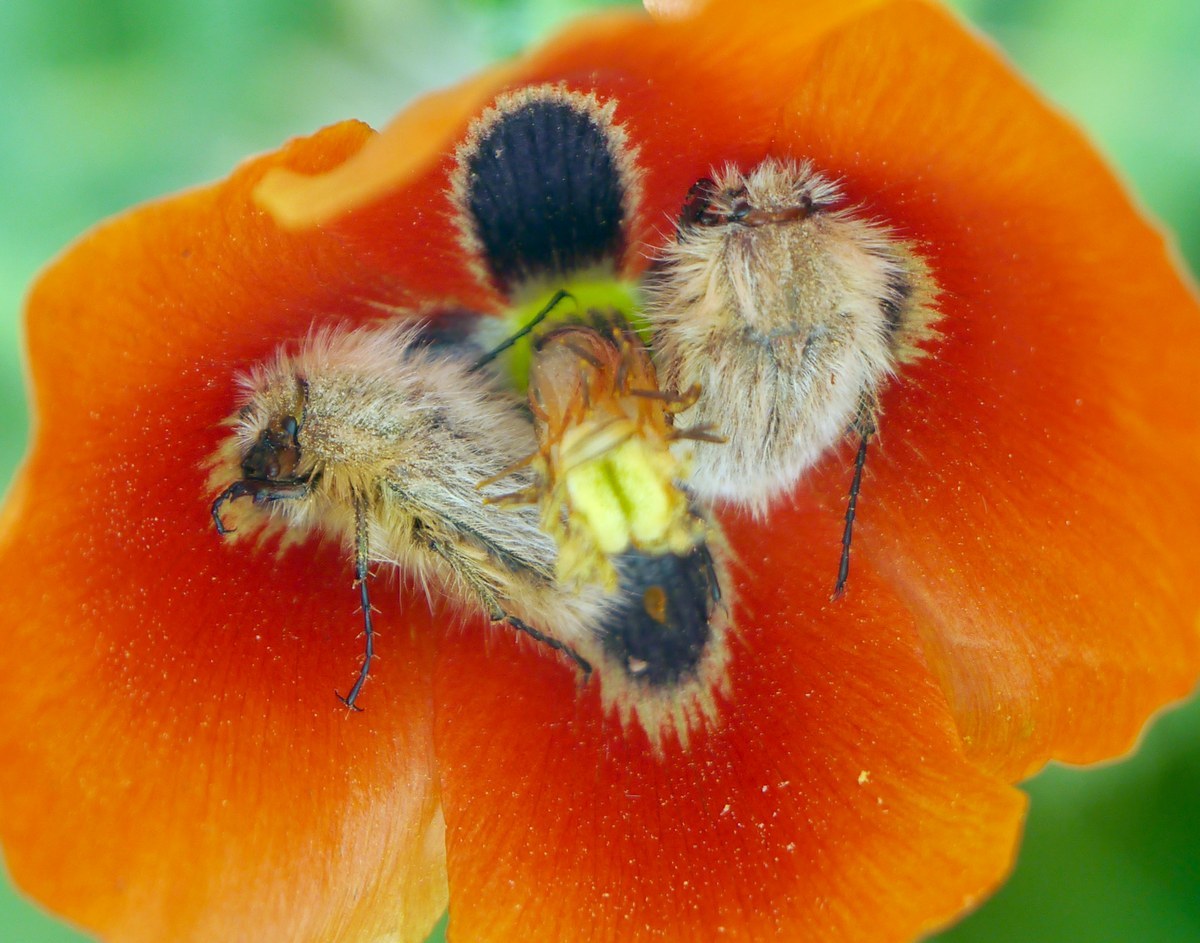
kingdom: Animalia
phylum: Arthropoda
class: Insecta
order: Coleoptera
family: Glaphyridae
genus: Pygopleurus
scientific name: Pygopleurus vulpes
